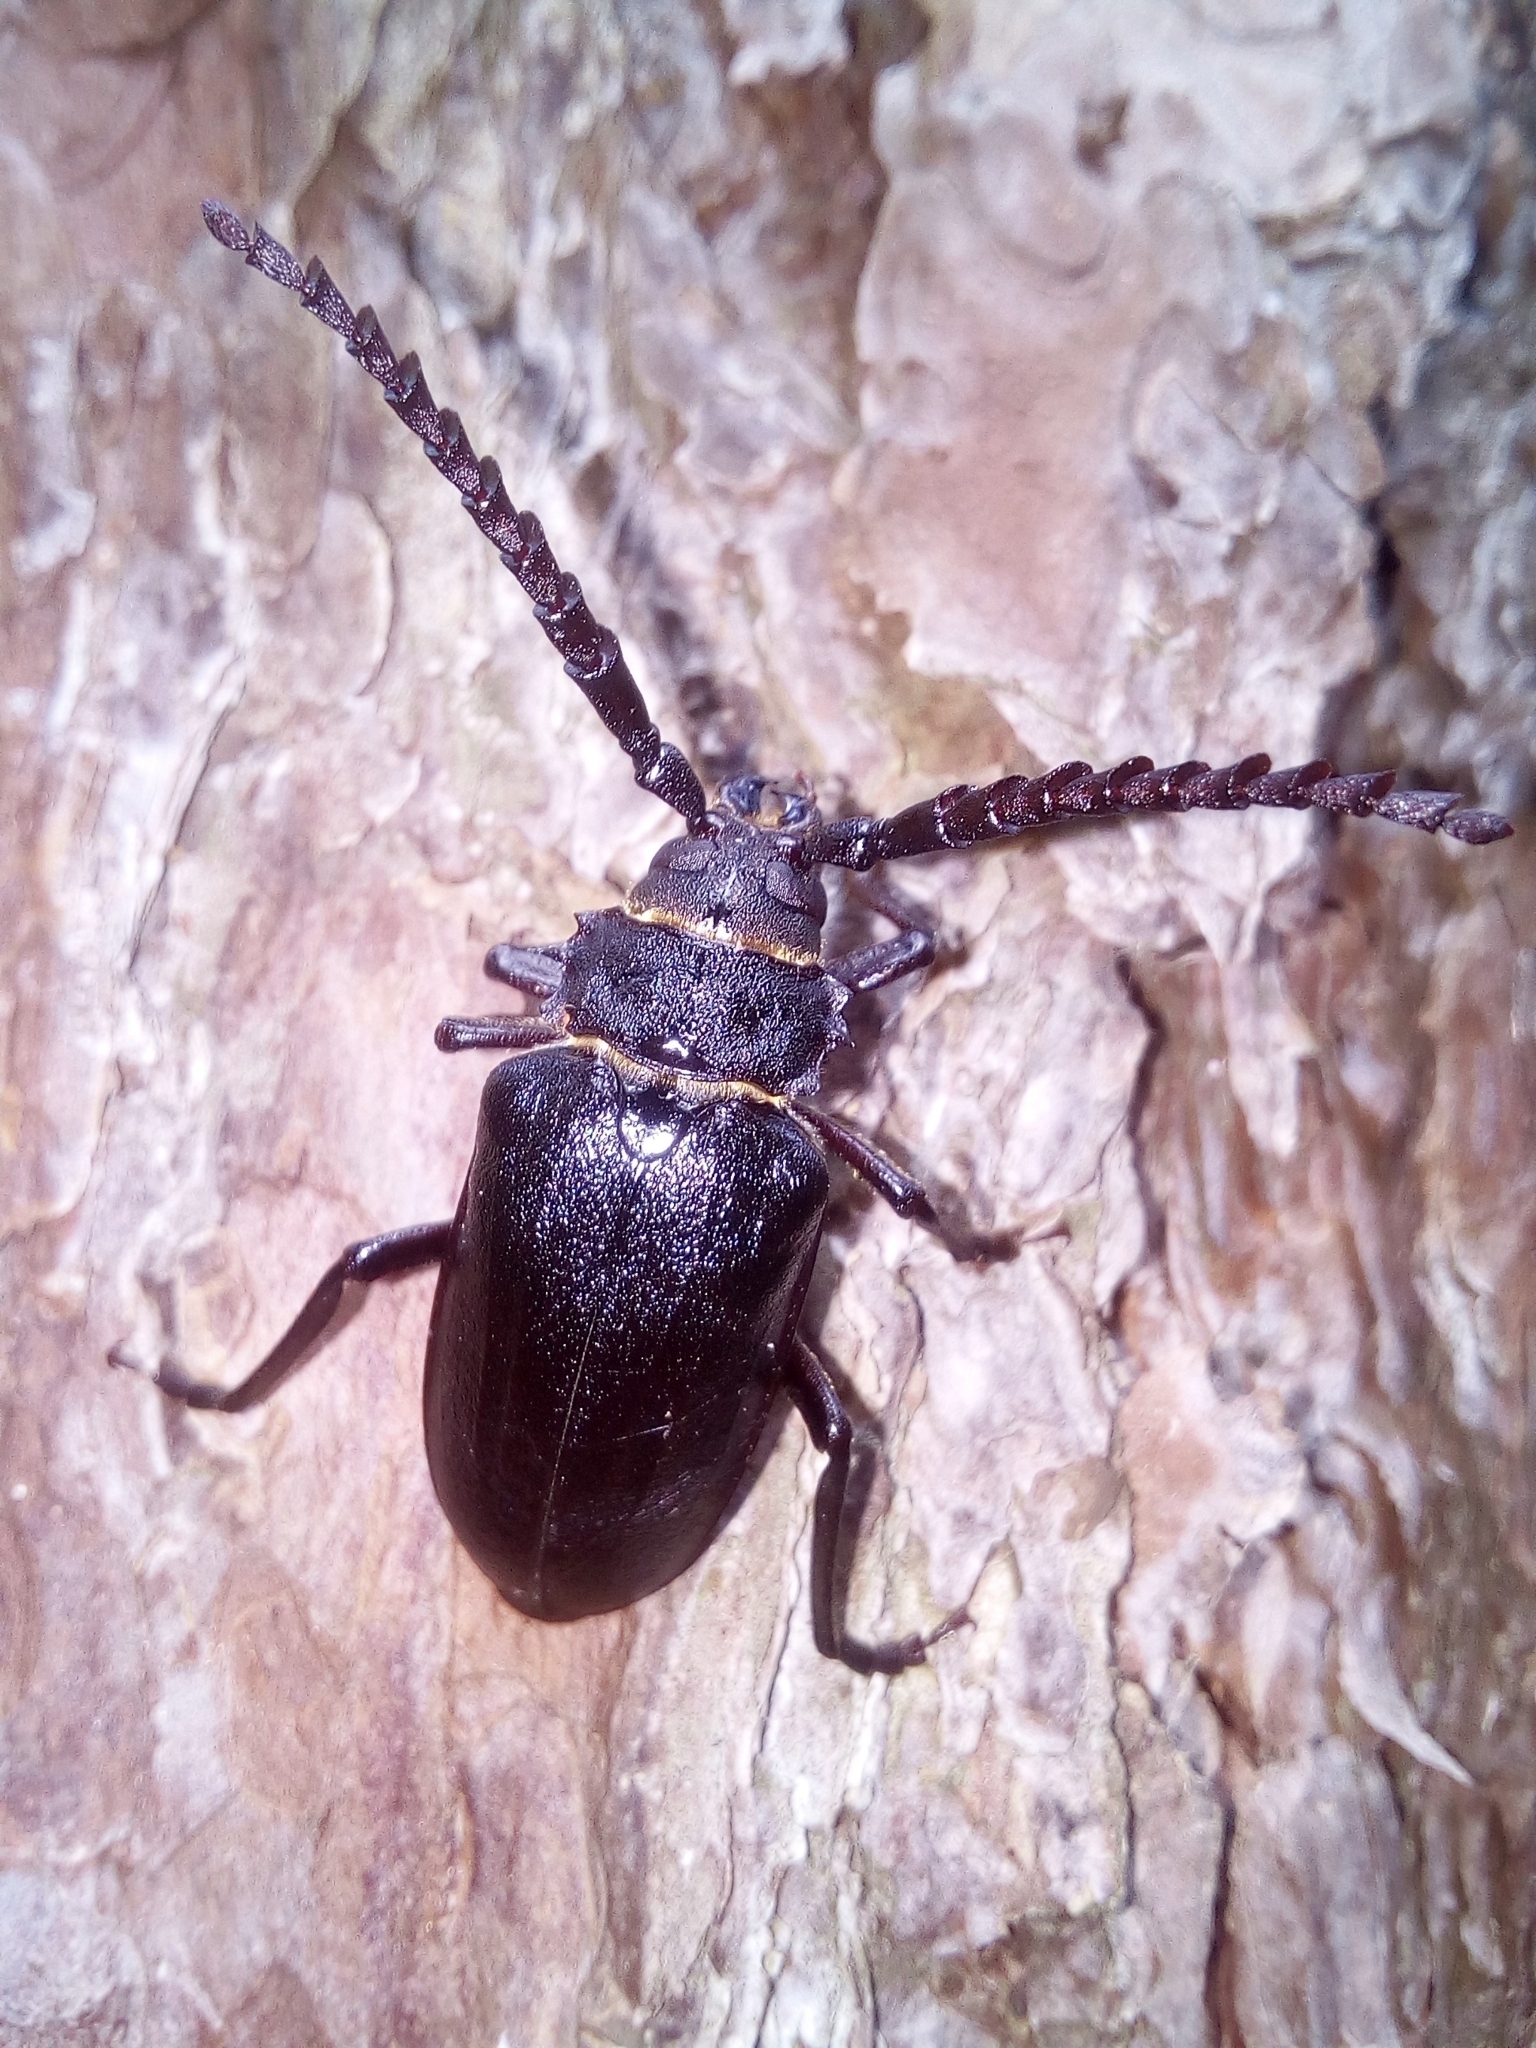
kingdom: Animalia
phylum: Arthropoda
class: Insecta
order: Coleoptera
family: Cerambycidae
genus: Prionus
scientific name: Prionus coriarius
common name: Tanner beetle
